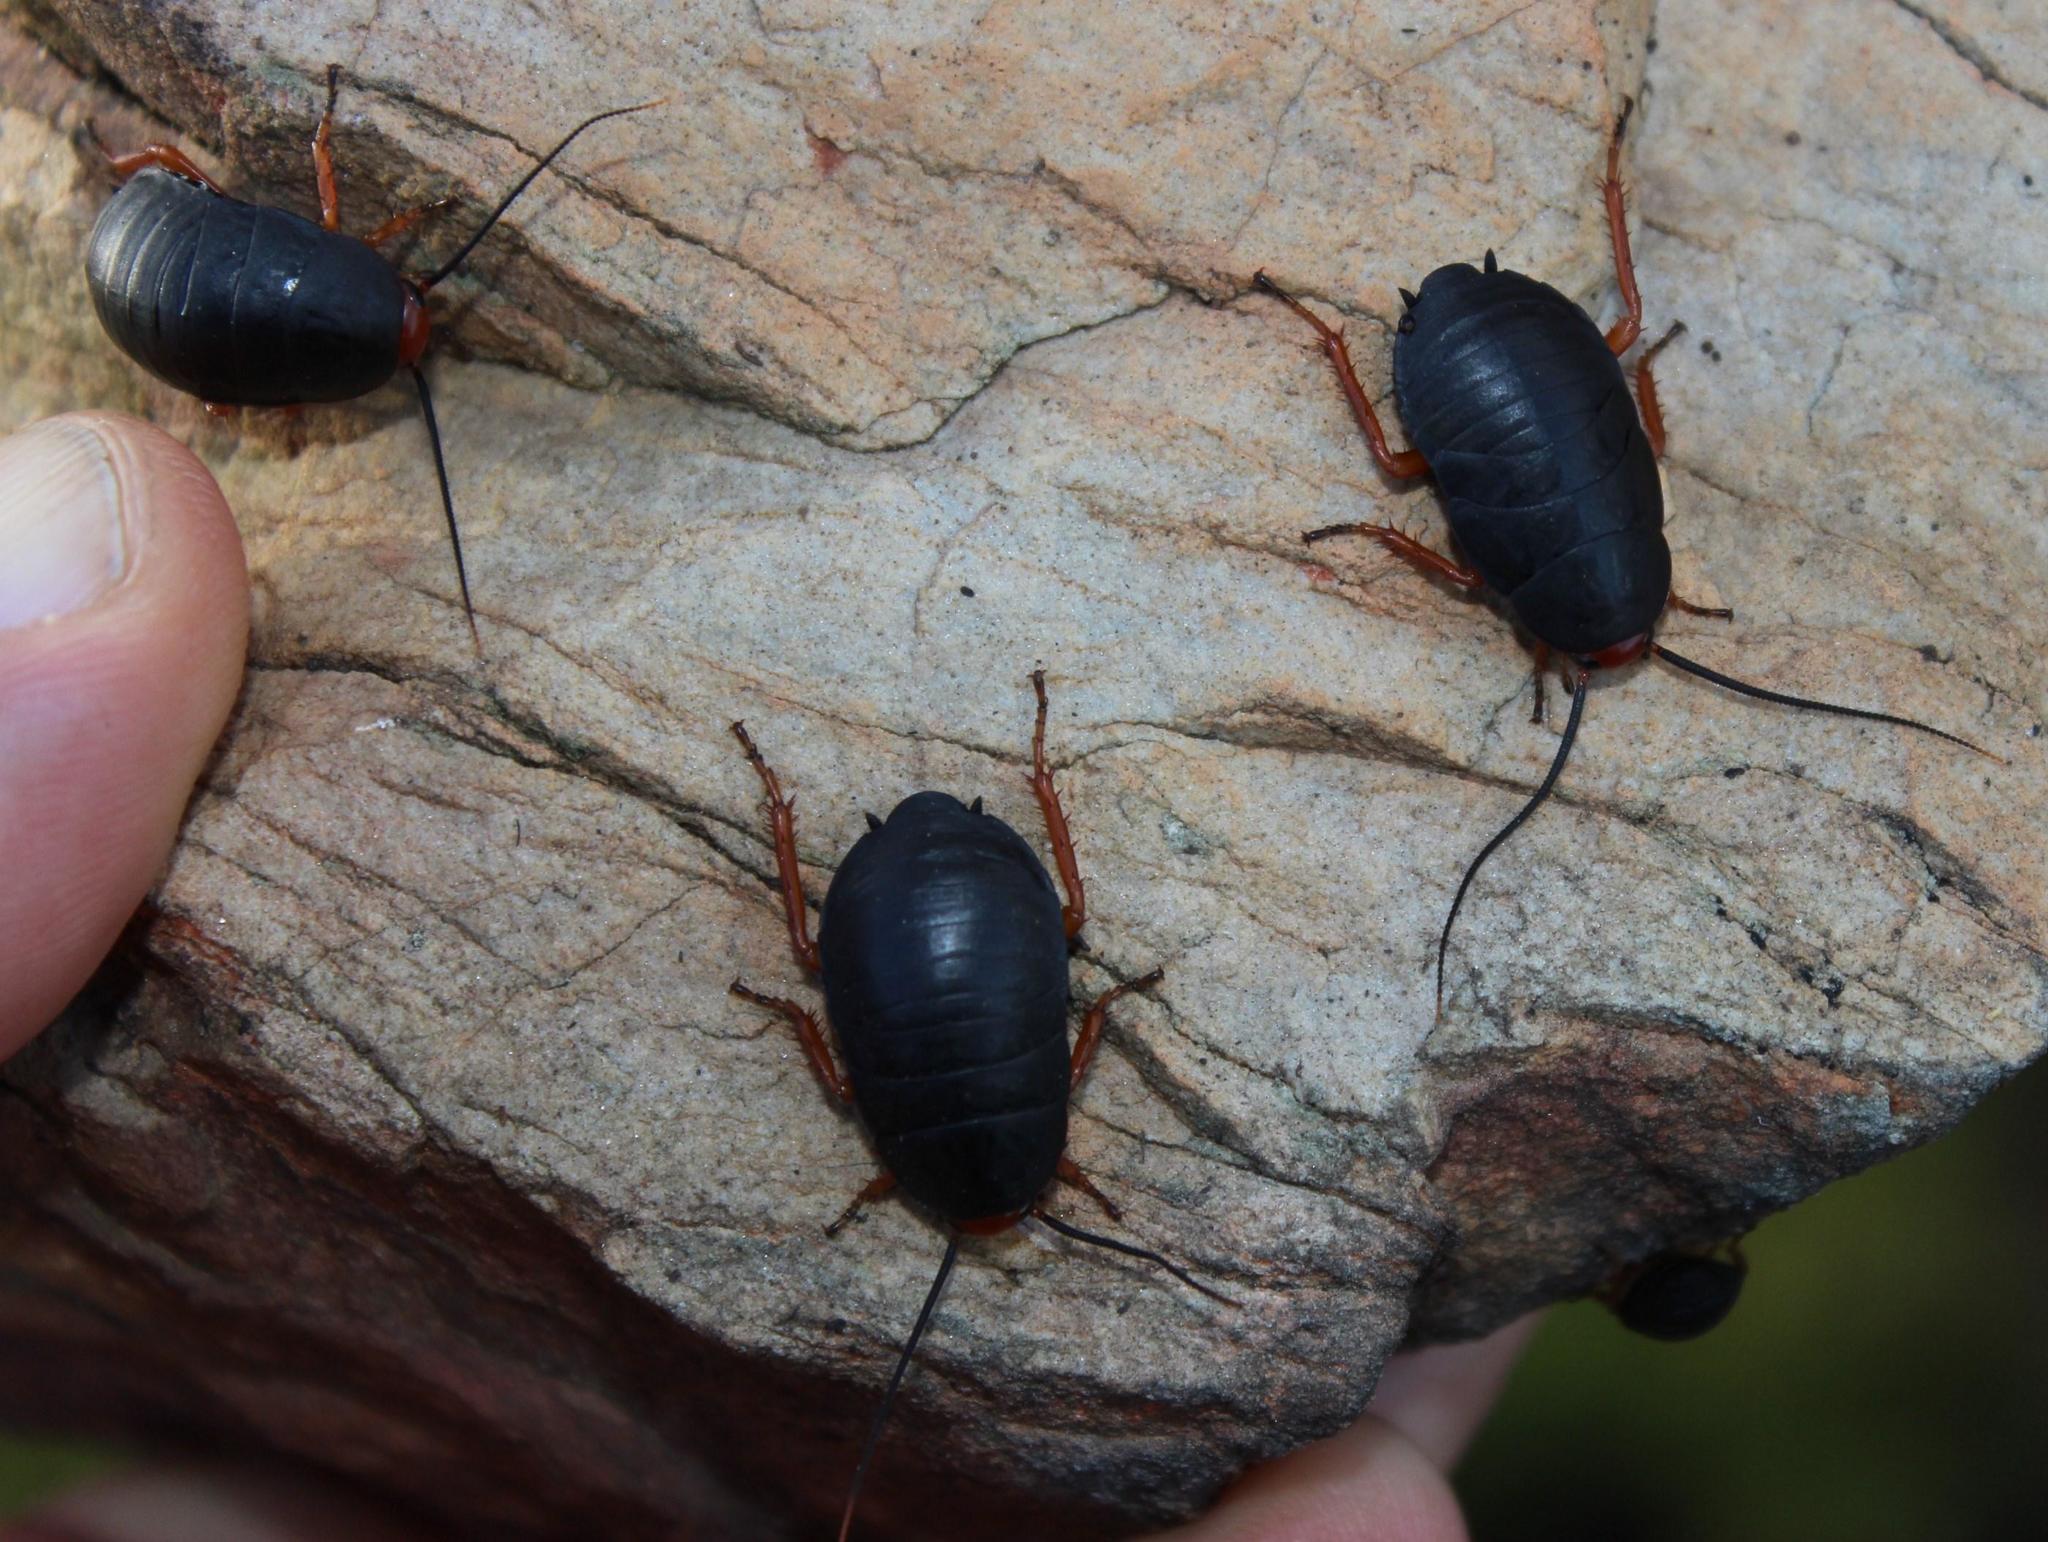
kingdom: Animalia
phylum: Arthropoda
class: Insecta
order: Blattodea
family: Blattidae
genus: Deropeltis
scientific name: Deropeltis erythrocephala
